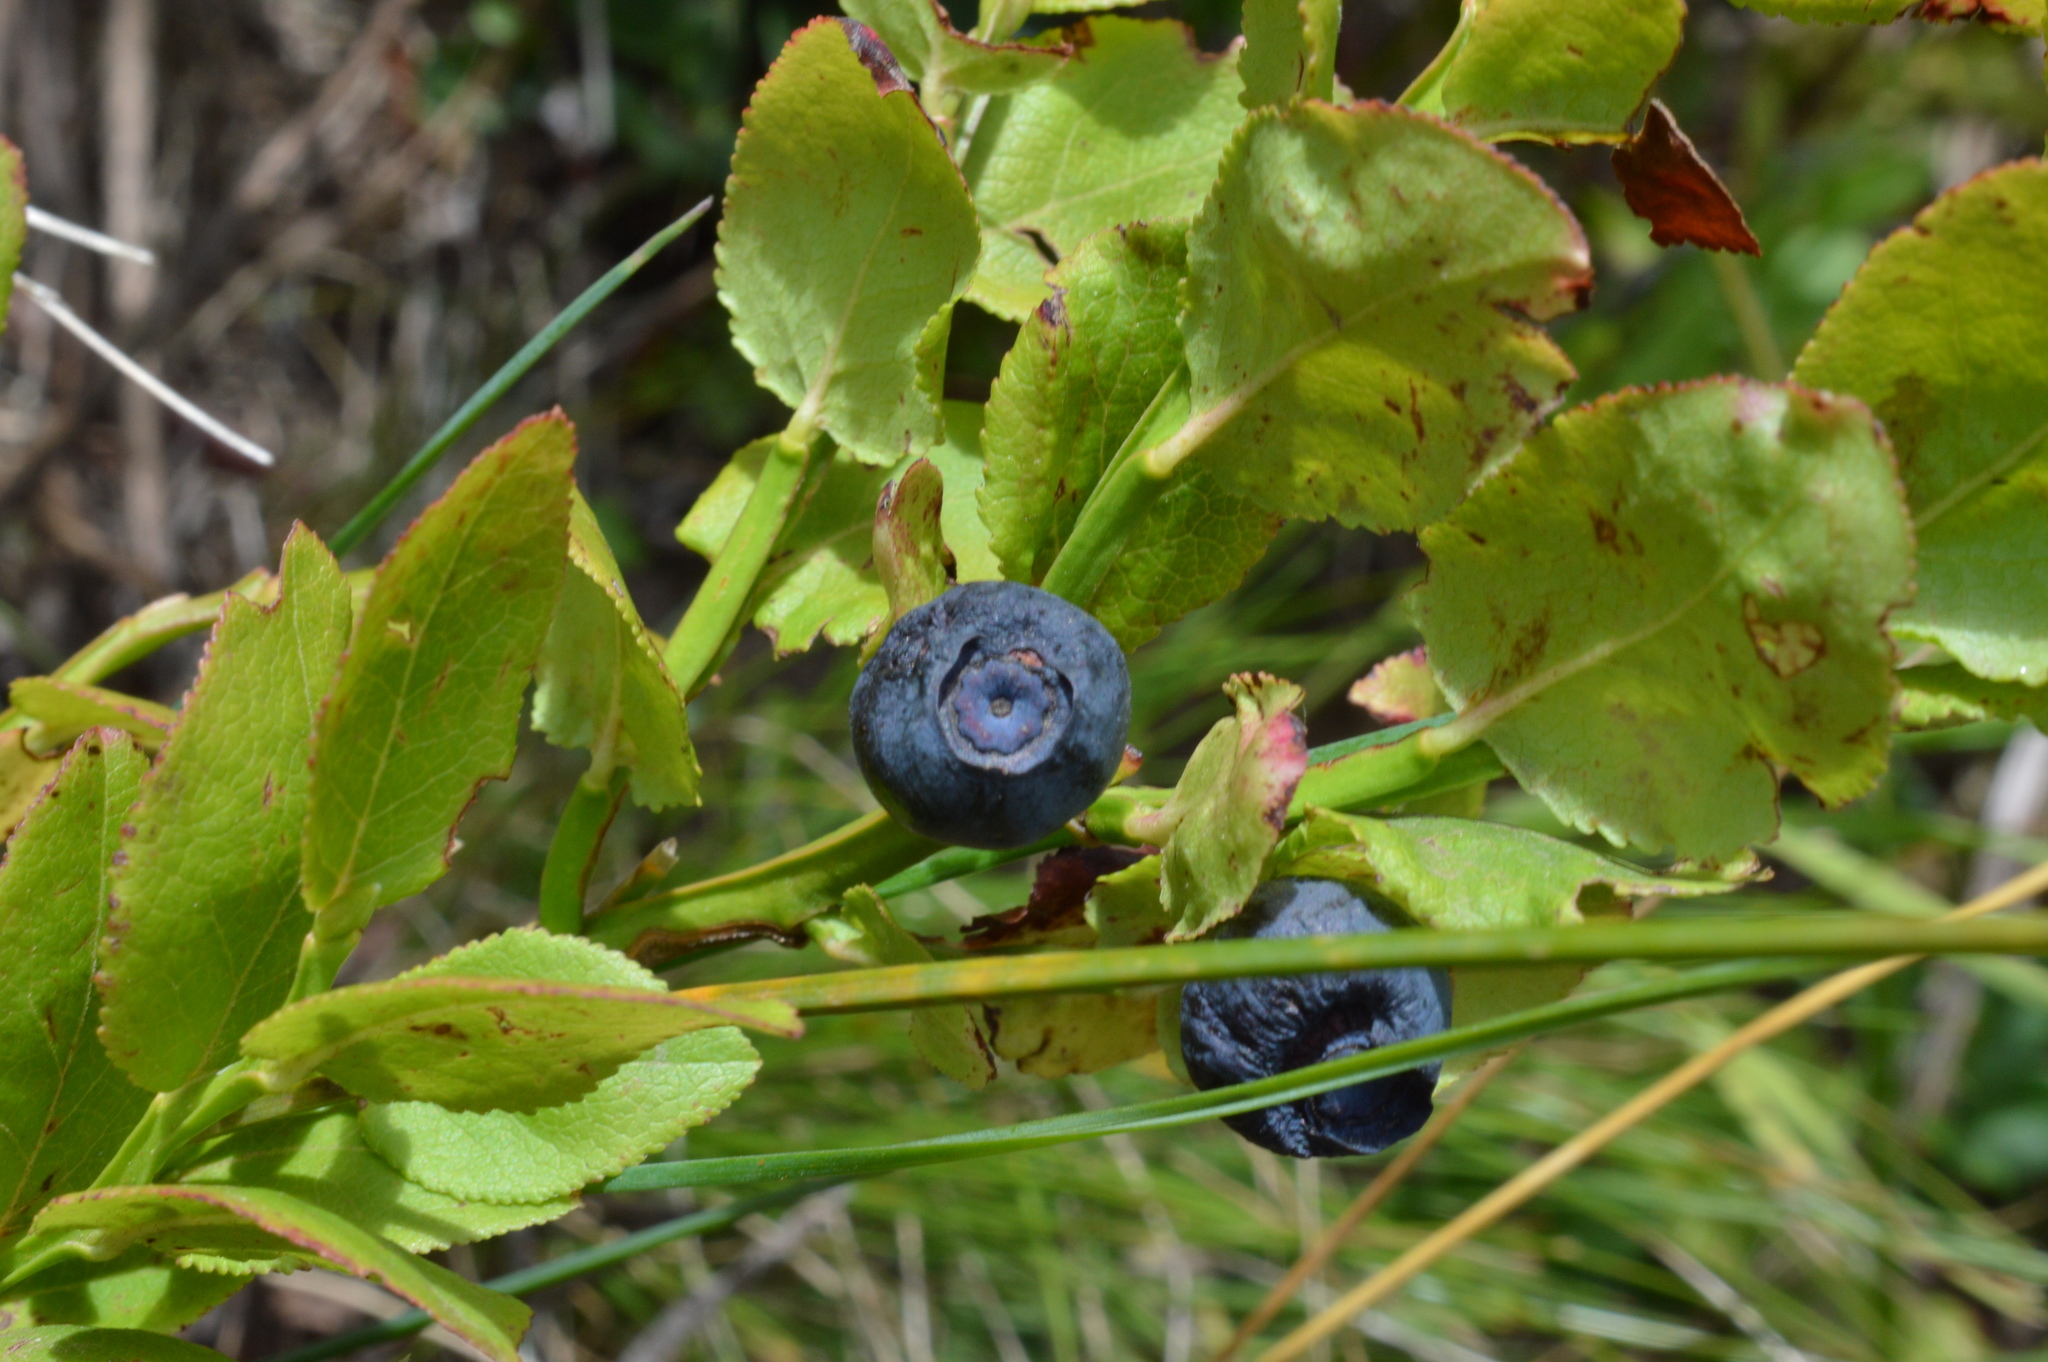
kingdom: Plantae
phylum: Tracheophyta
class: Magnoliopsida
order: Ericales
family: Ericaceae
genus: Vaccinium
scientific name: Vaccinium myrtillus
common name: Bilberry
